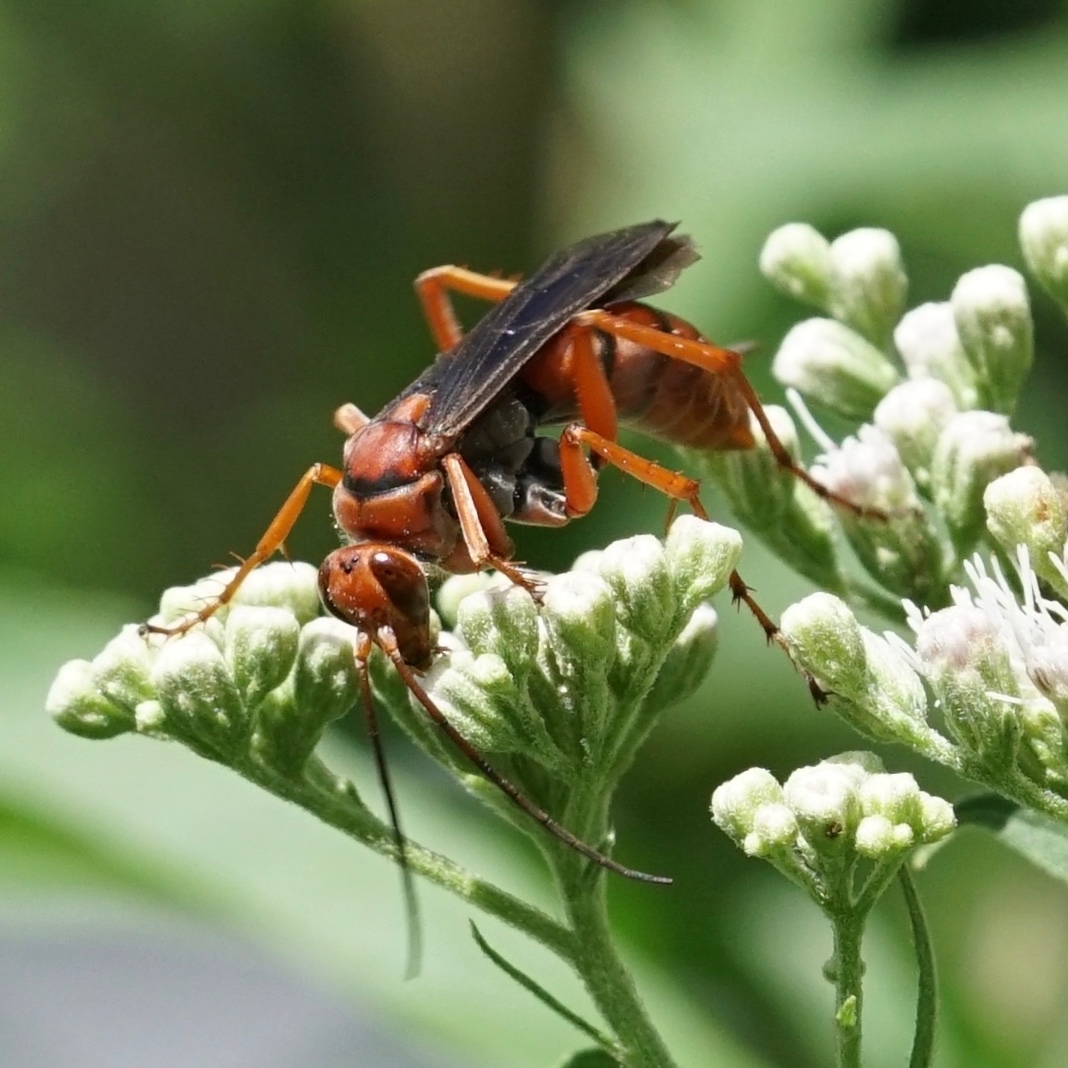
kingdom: Animalia
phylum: Arthropoda
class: Insecta
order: Hymenoptera
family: Pompilidae
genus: Tachypompilus
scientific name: Tachypompilus ferrugineus
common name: Rusty spider wasp
